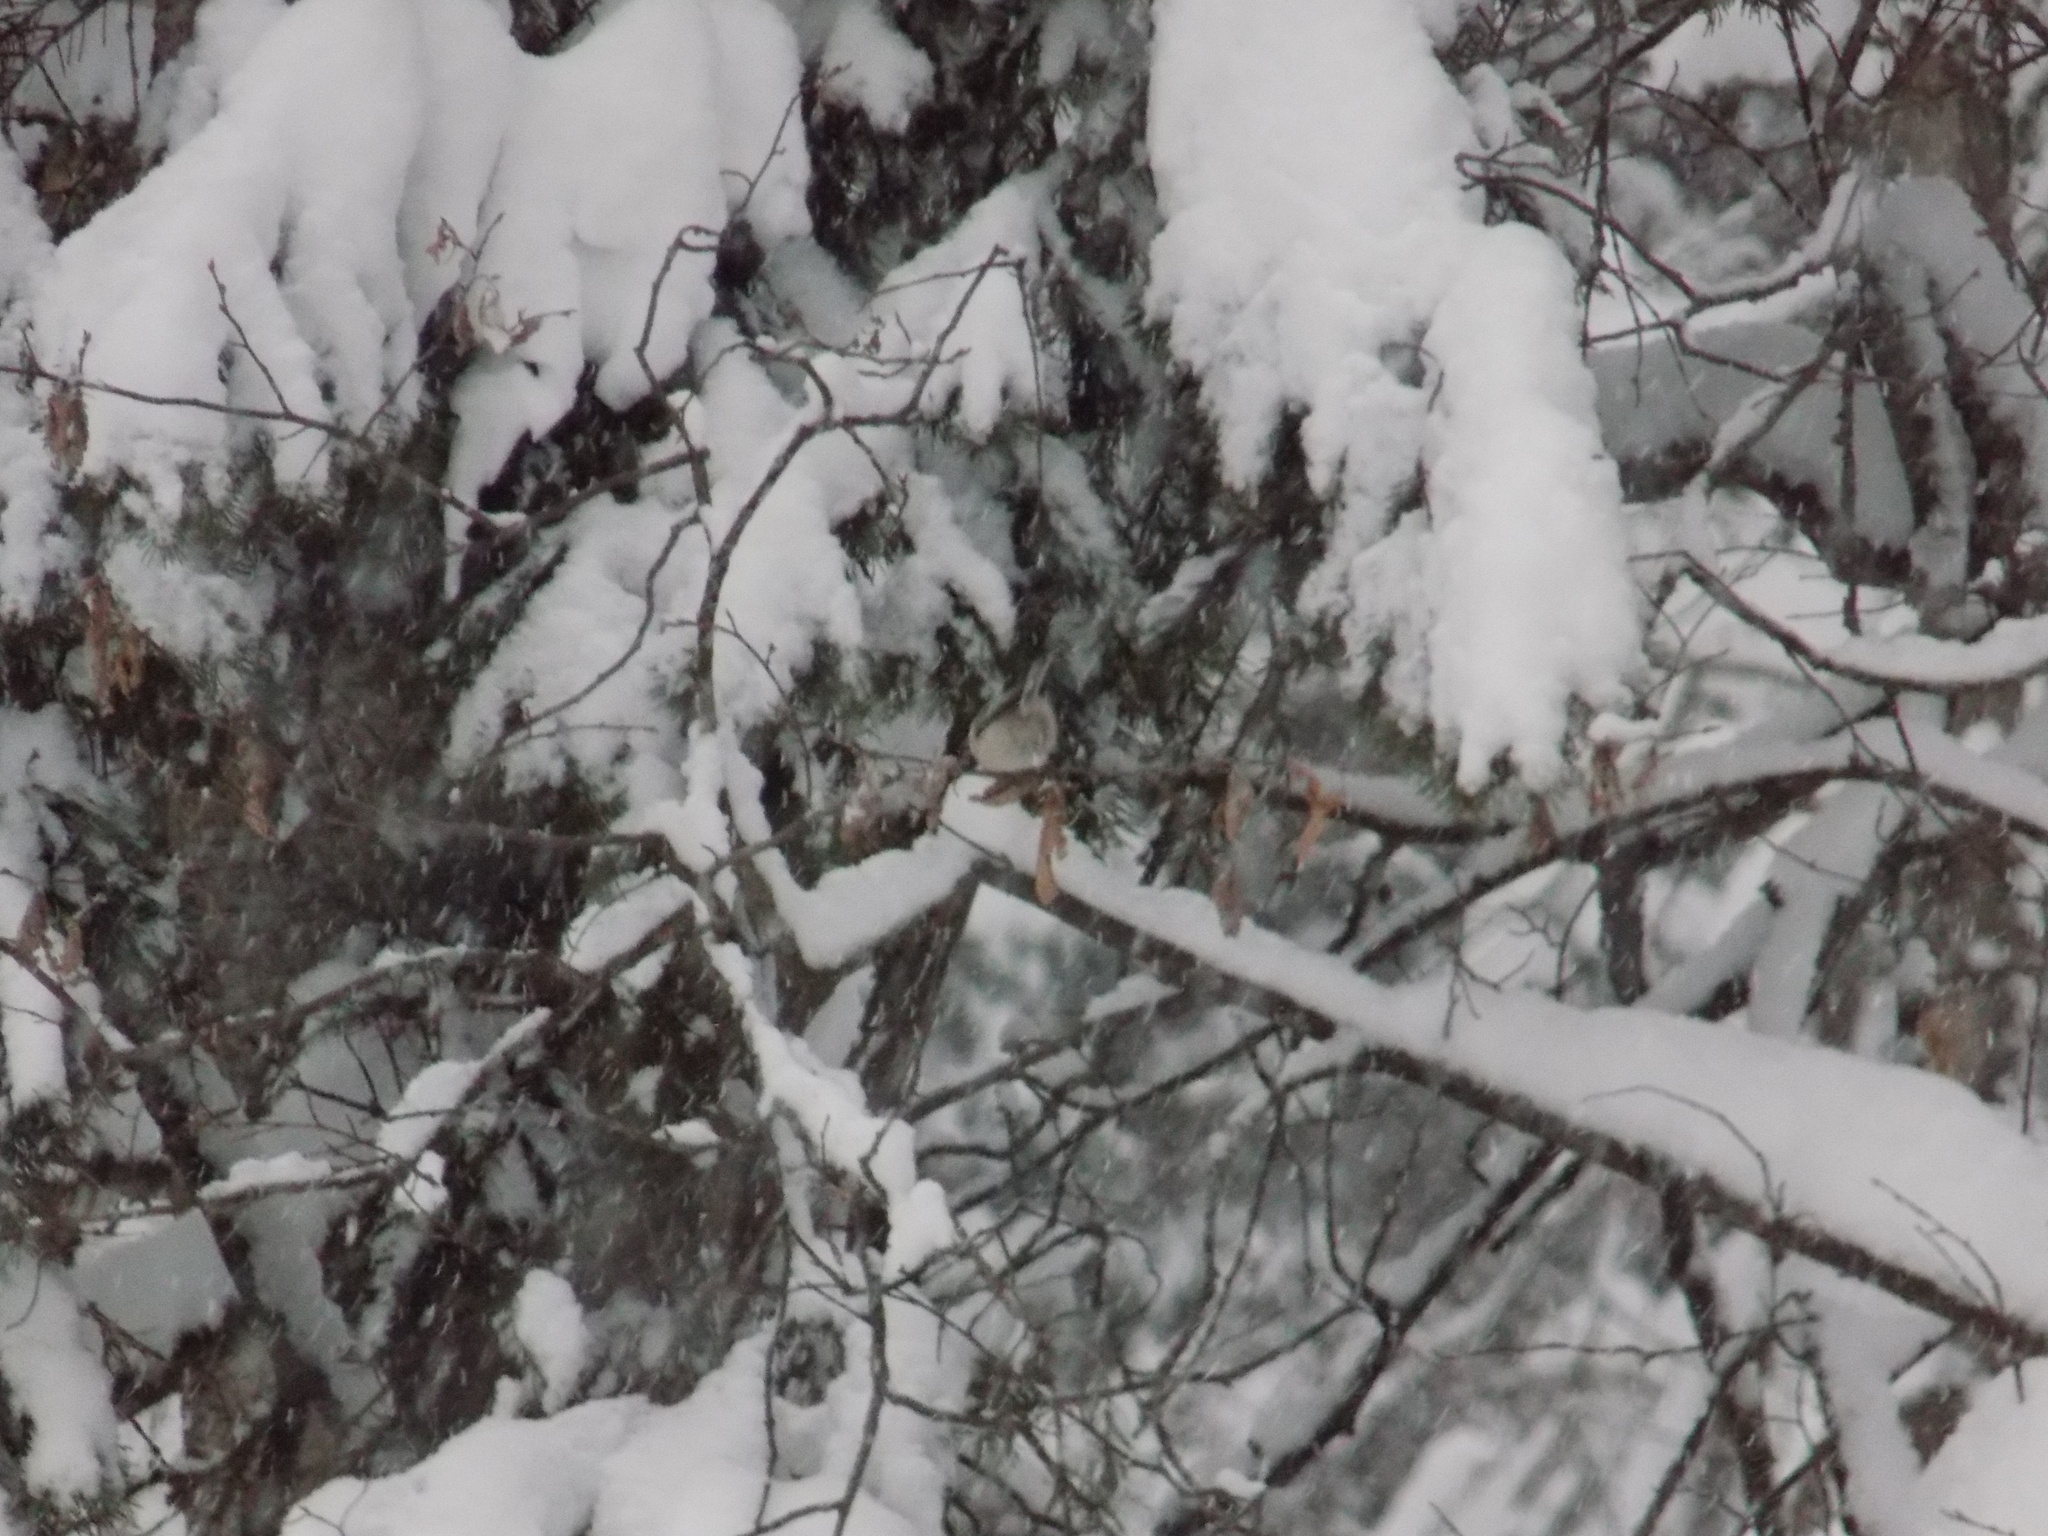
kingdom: Animalia
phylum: Chordata
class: Aves
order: Passeriformes
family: Paridae
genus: Poecile
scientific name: Poecile montanus
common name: Willow tit
